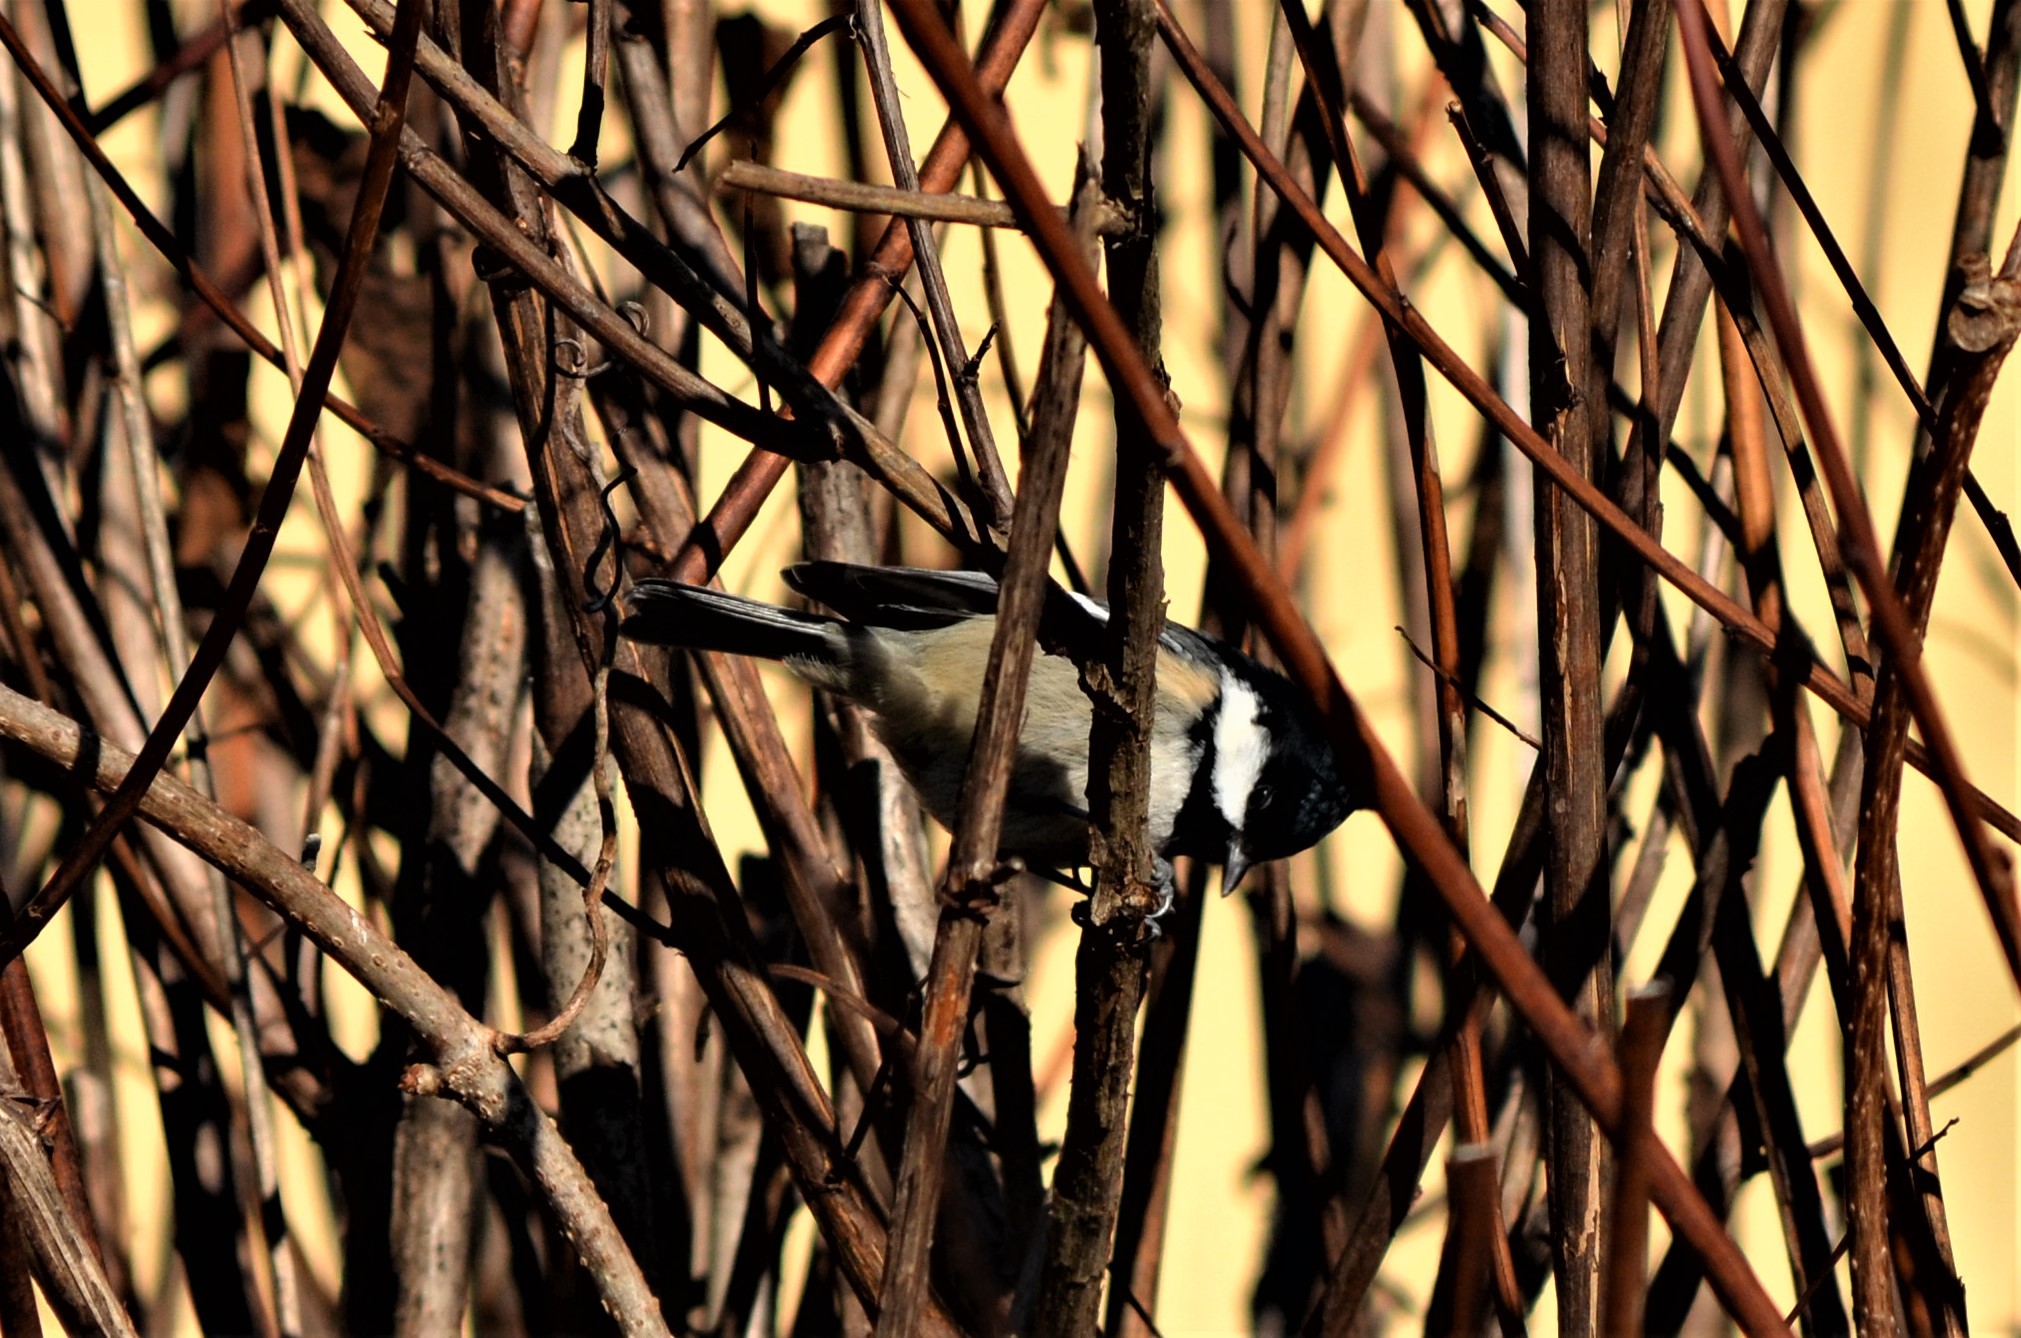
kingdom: Animalia
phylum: Chordata
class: Aves
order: Passeriformes
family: Paridae
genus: Periparus
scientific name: Periparus ater
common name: Coal tit
